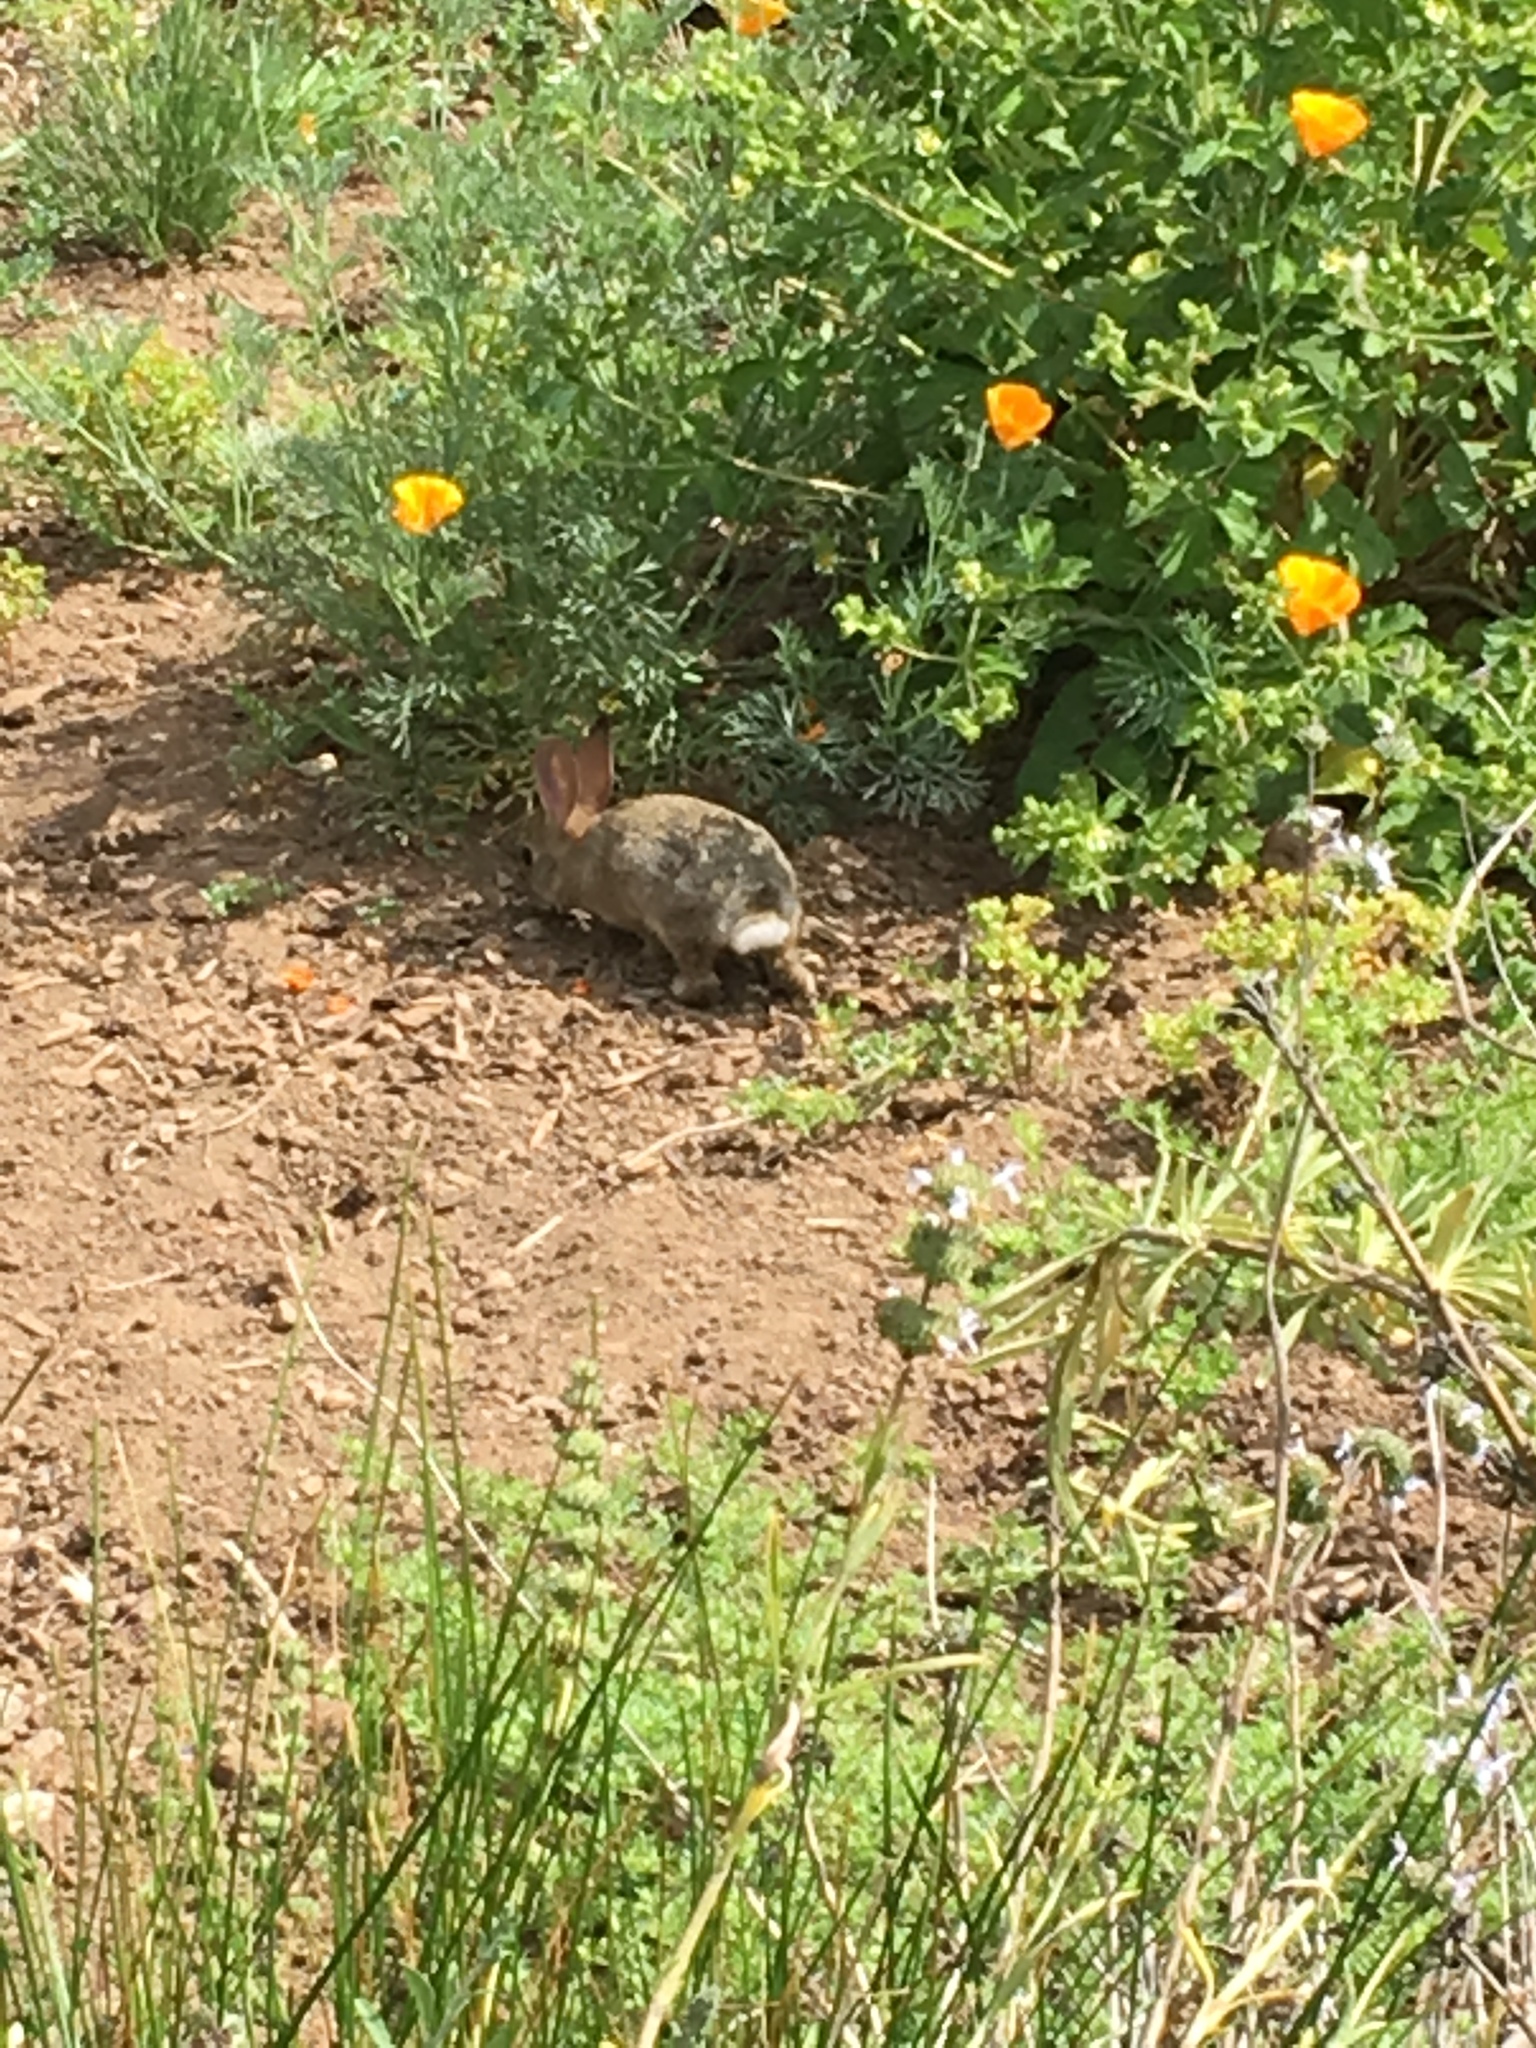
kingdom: Animalia
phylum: Chordata
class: Mammalia
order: Lagomorpha
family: Leporidae
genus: Sylvilagus
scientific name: Sylvilagus audubonii
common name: Desert cottontail
